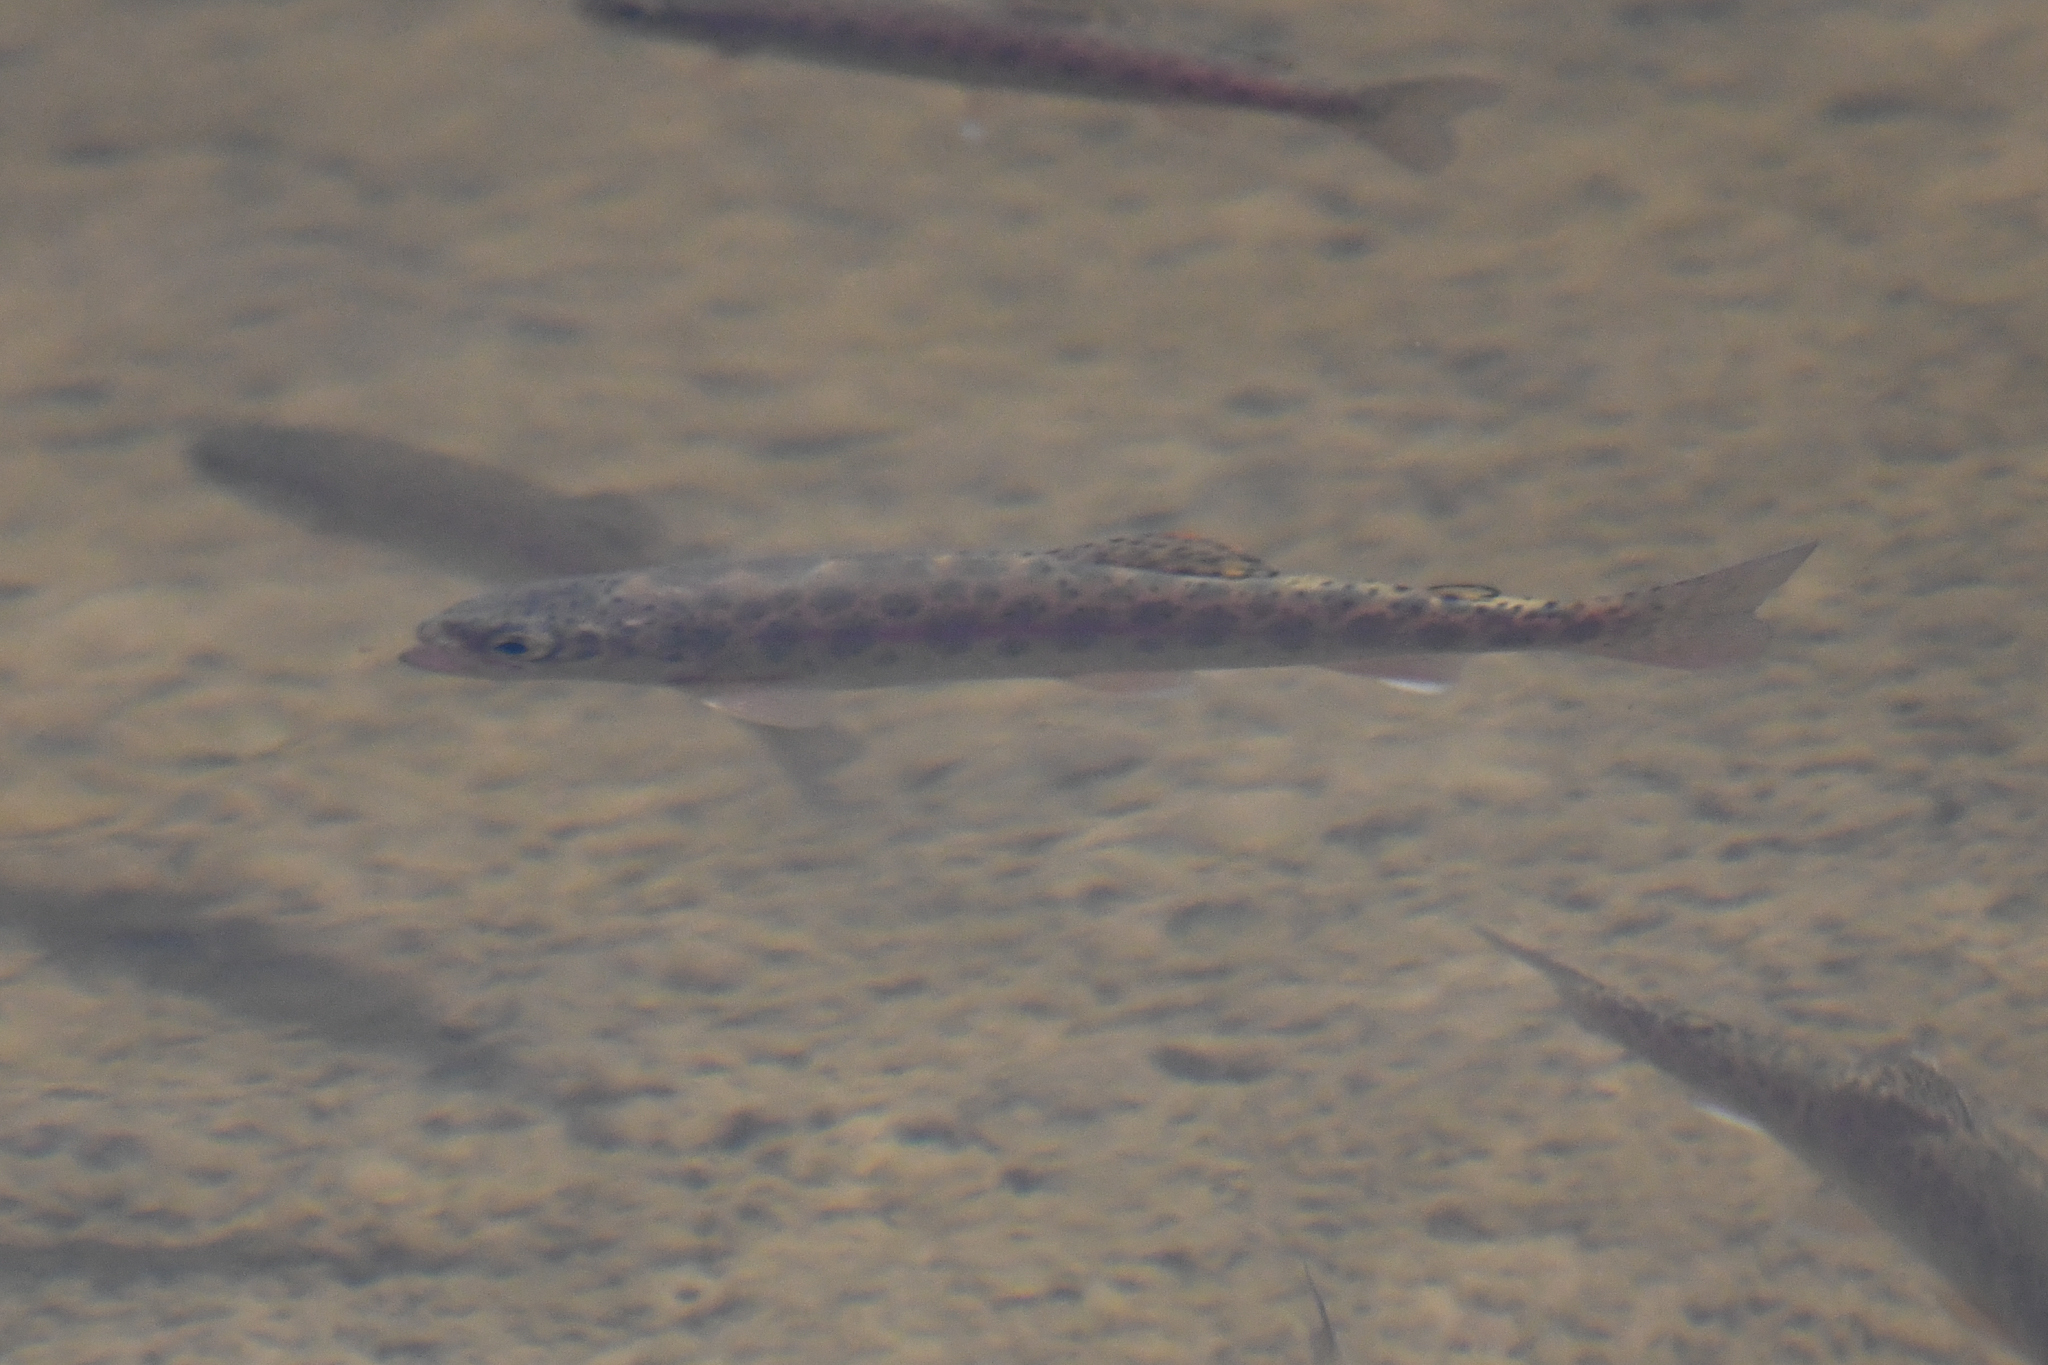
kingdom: Animalia
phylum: Chordata
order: Salmoniformes
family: Salmonidae
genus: Oncorhynchus
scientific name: Oncorhynchus mykiss
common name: Rainbow trout
